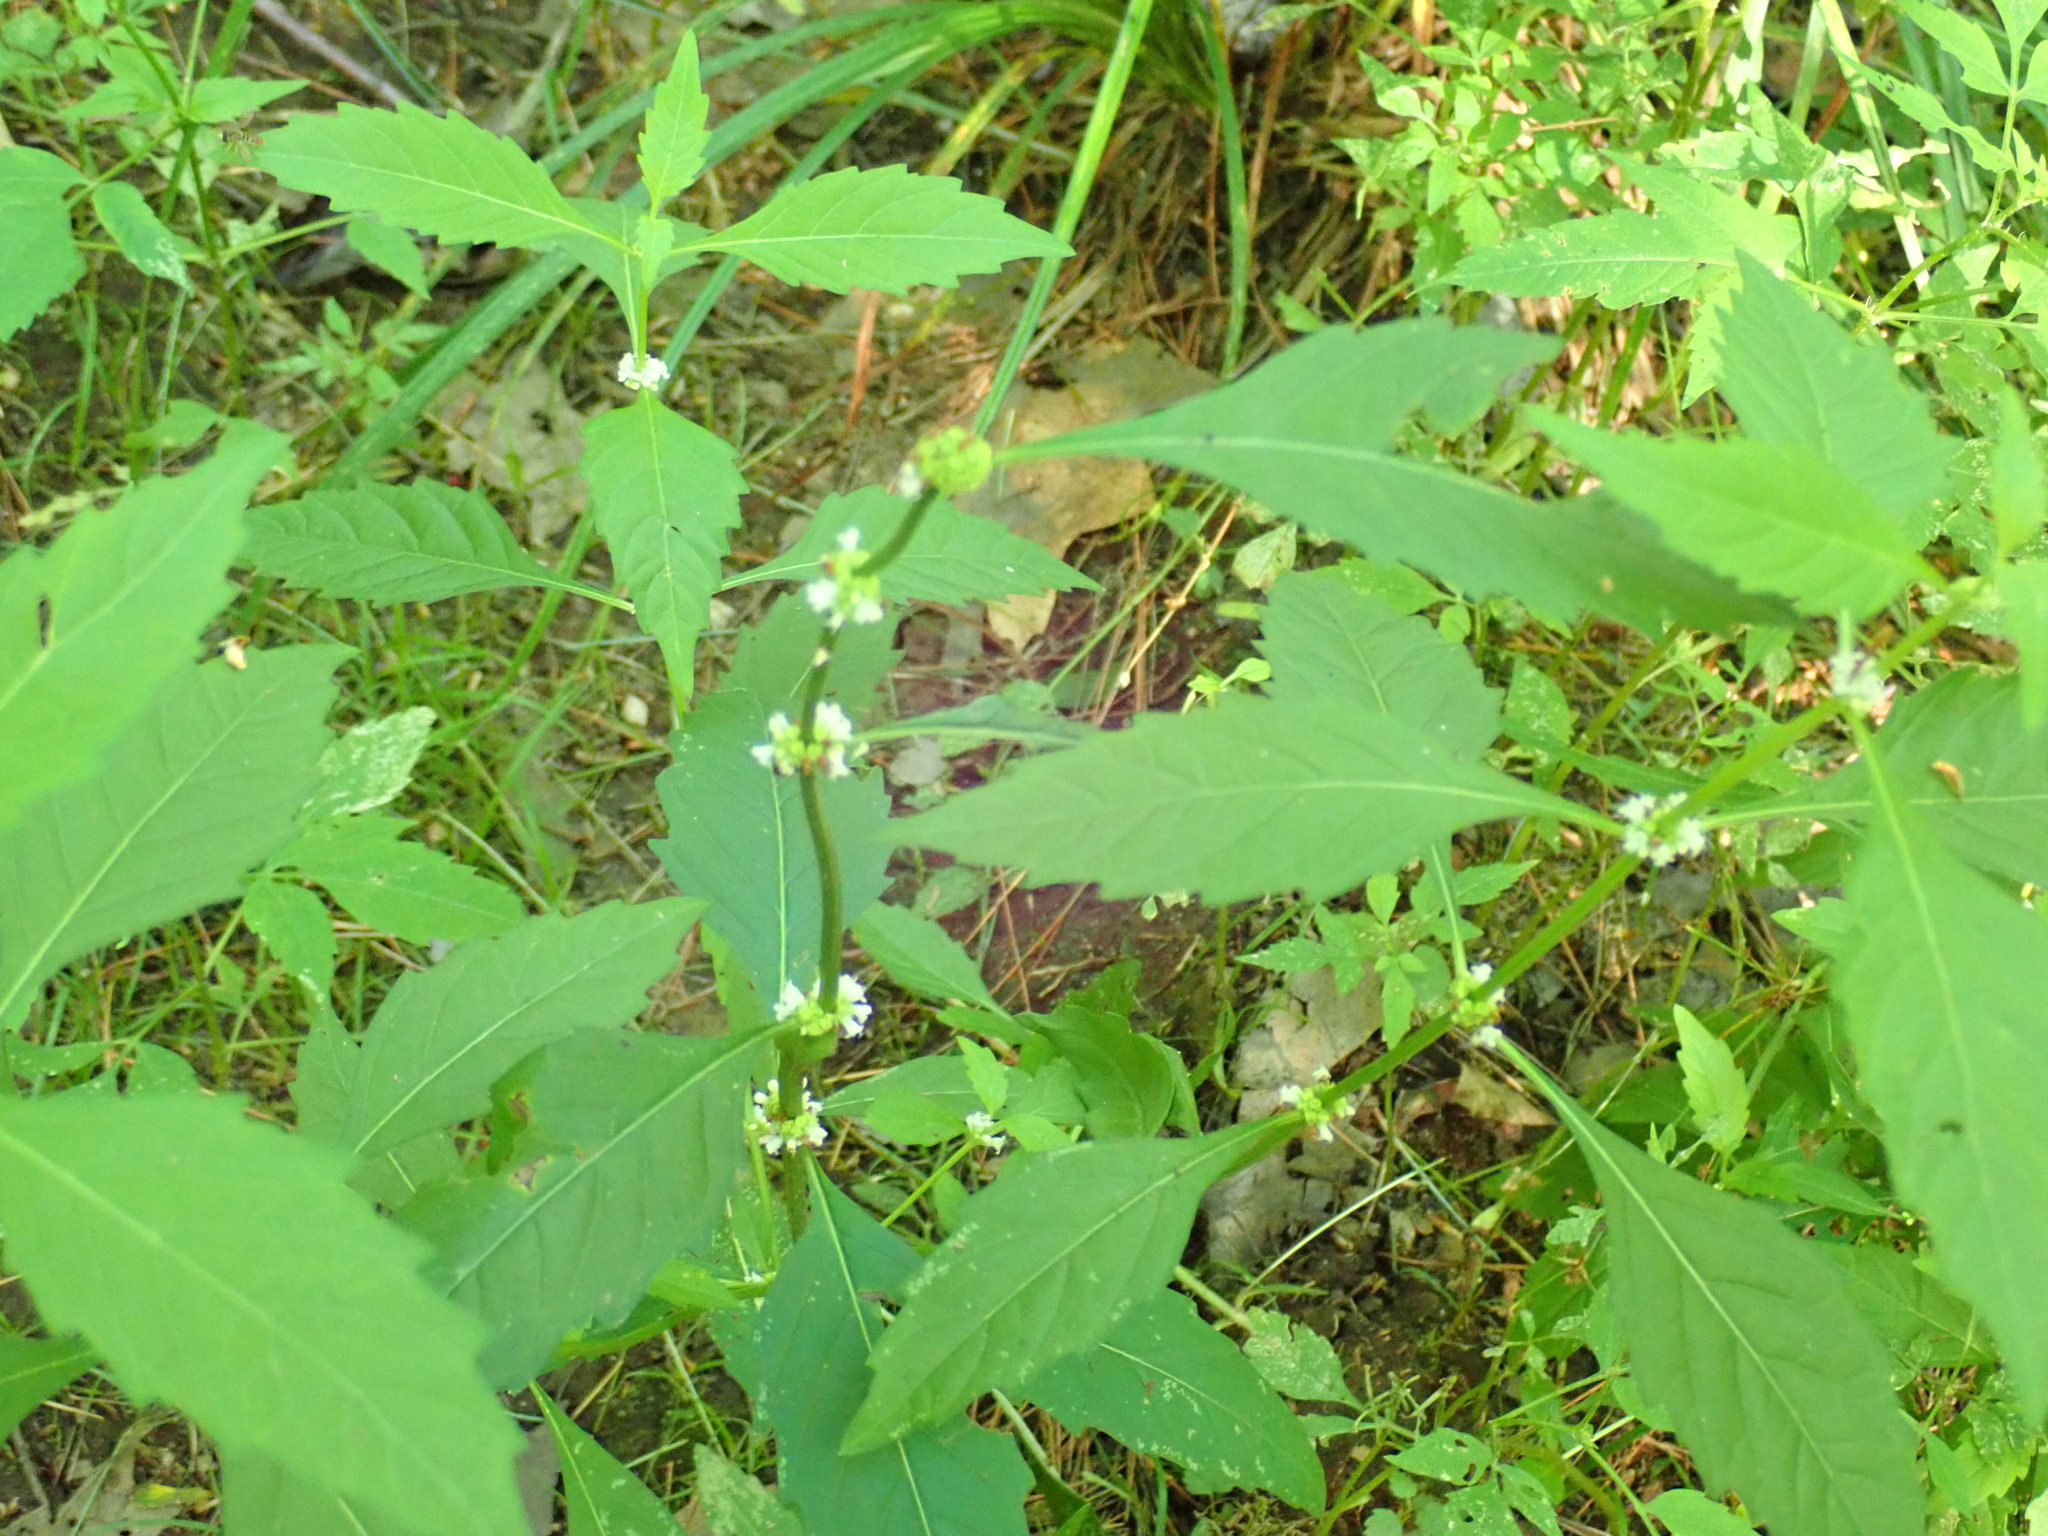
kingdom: Plantae
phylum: Tracheophyta
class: Magnoliopsida
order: Lamiales
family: Lamiaceae
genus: Lycopus
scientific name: Lycopus uniflorus
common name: Northern bugleweed
